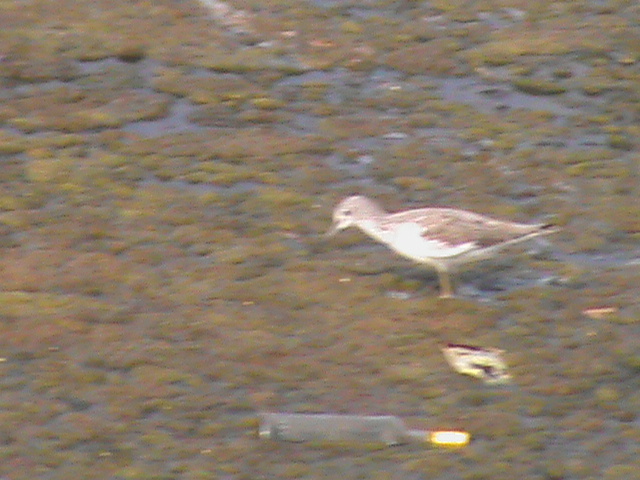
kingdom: Animalia
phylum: Chordata
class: Aves
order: Charadriiformes
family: Scolopacidae
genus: Tringa
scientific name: Tringa nebularia
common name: Common greenshank
